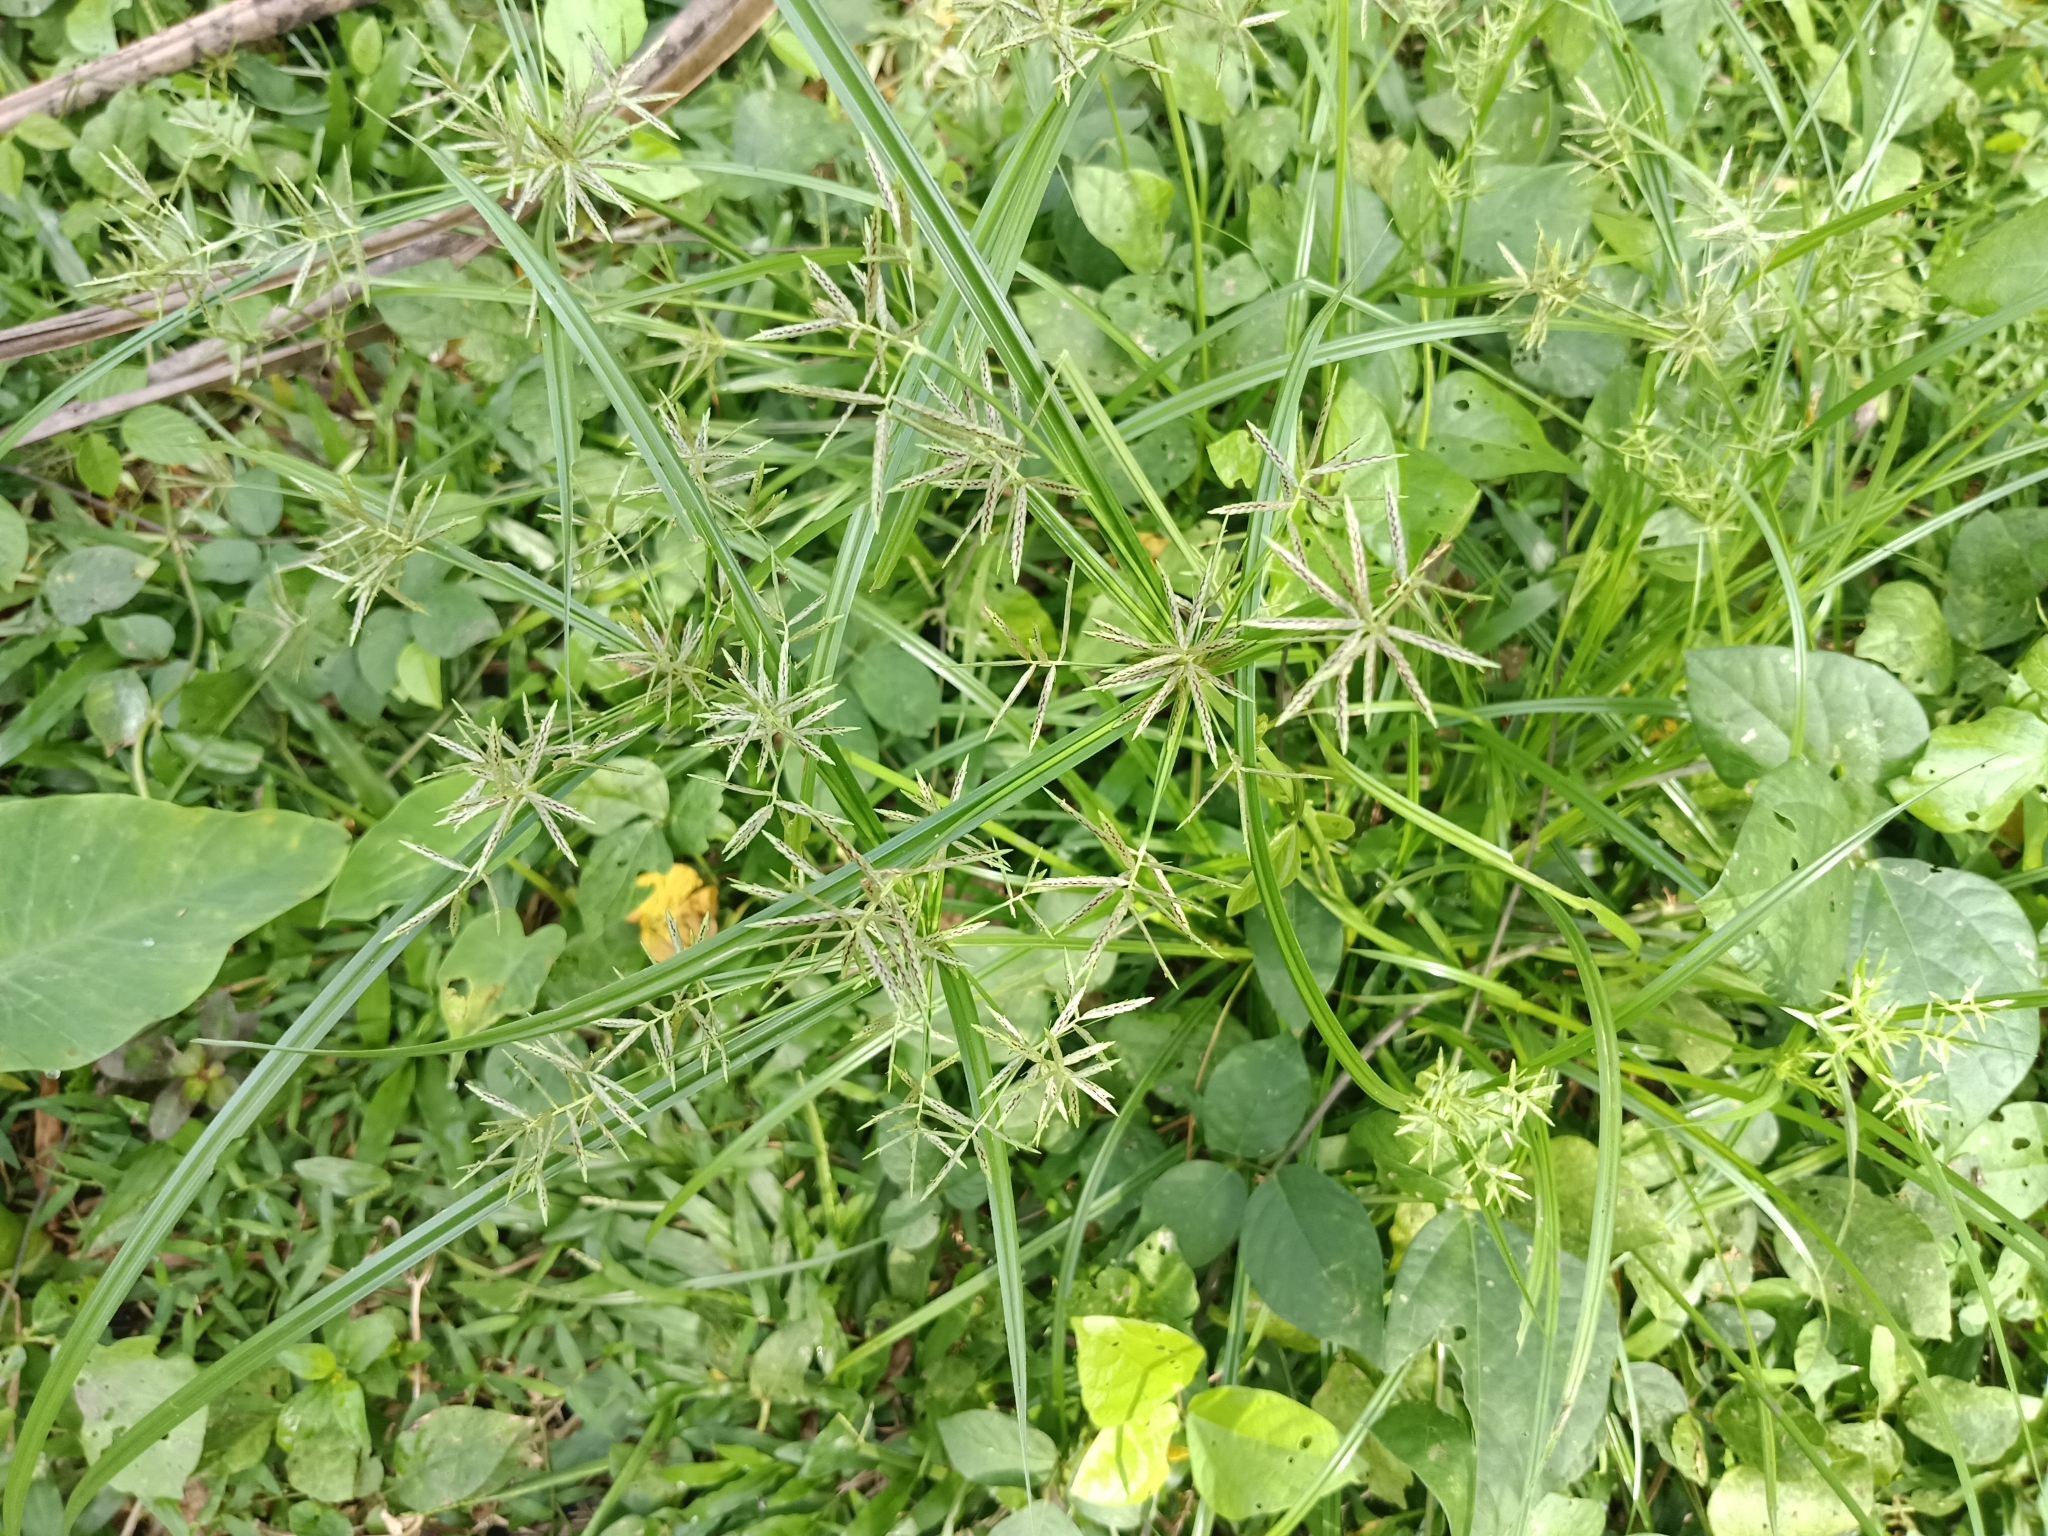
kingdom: Plantae
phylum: Tracheophyta
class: Liliopsida
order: Poales
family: Cyperaceae
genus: Cyperus
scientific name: Cyperus sphacelatus
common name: Roadside flatsedge
